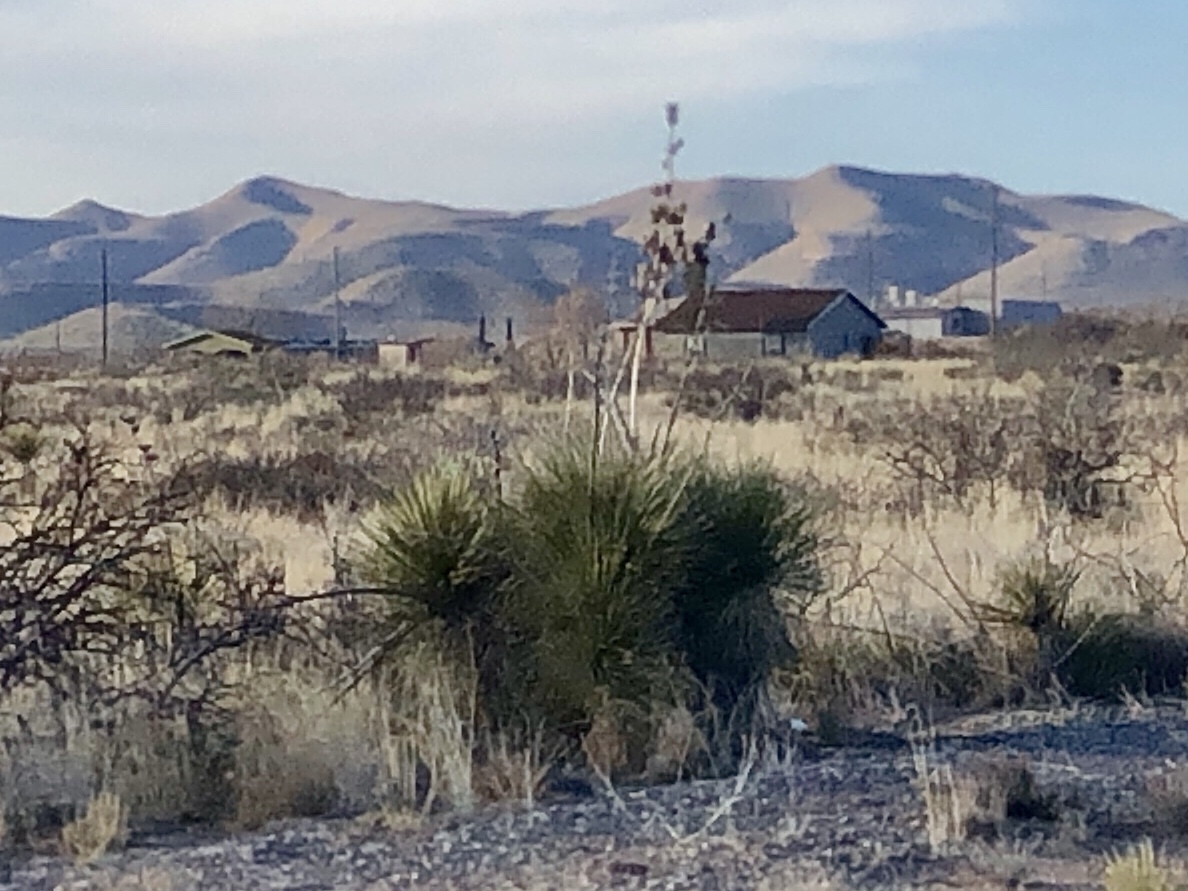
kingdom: Plantae
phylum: Tracheophyta
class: Liliopsida
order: Asparagales
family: Asparagaceae
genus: Yucca
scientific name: Yucca elata
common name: Palmella
